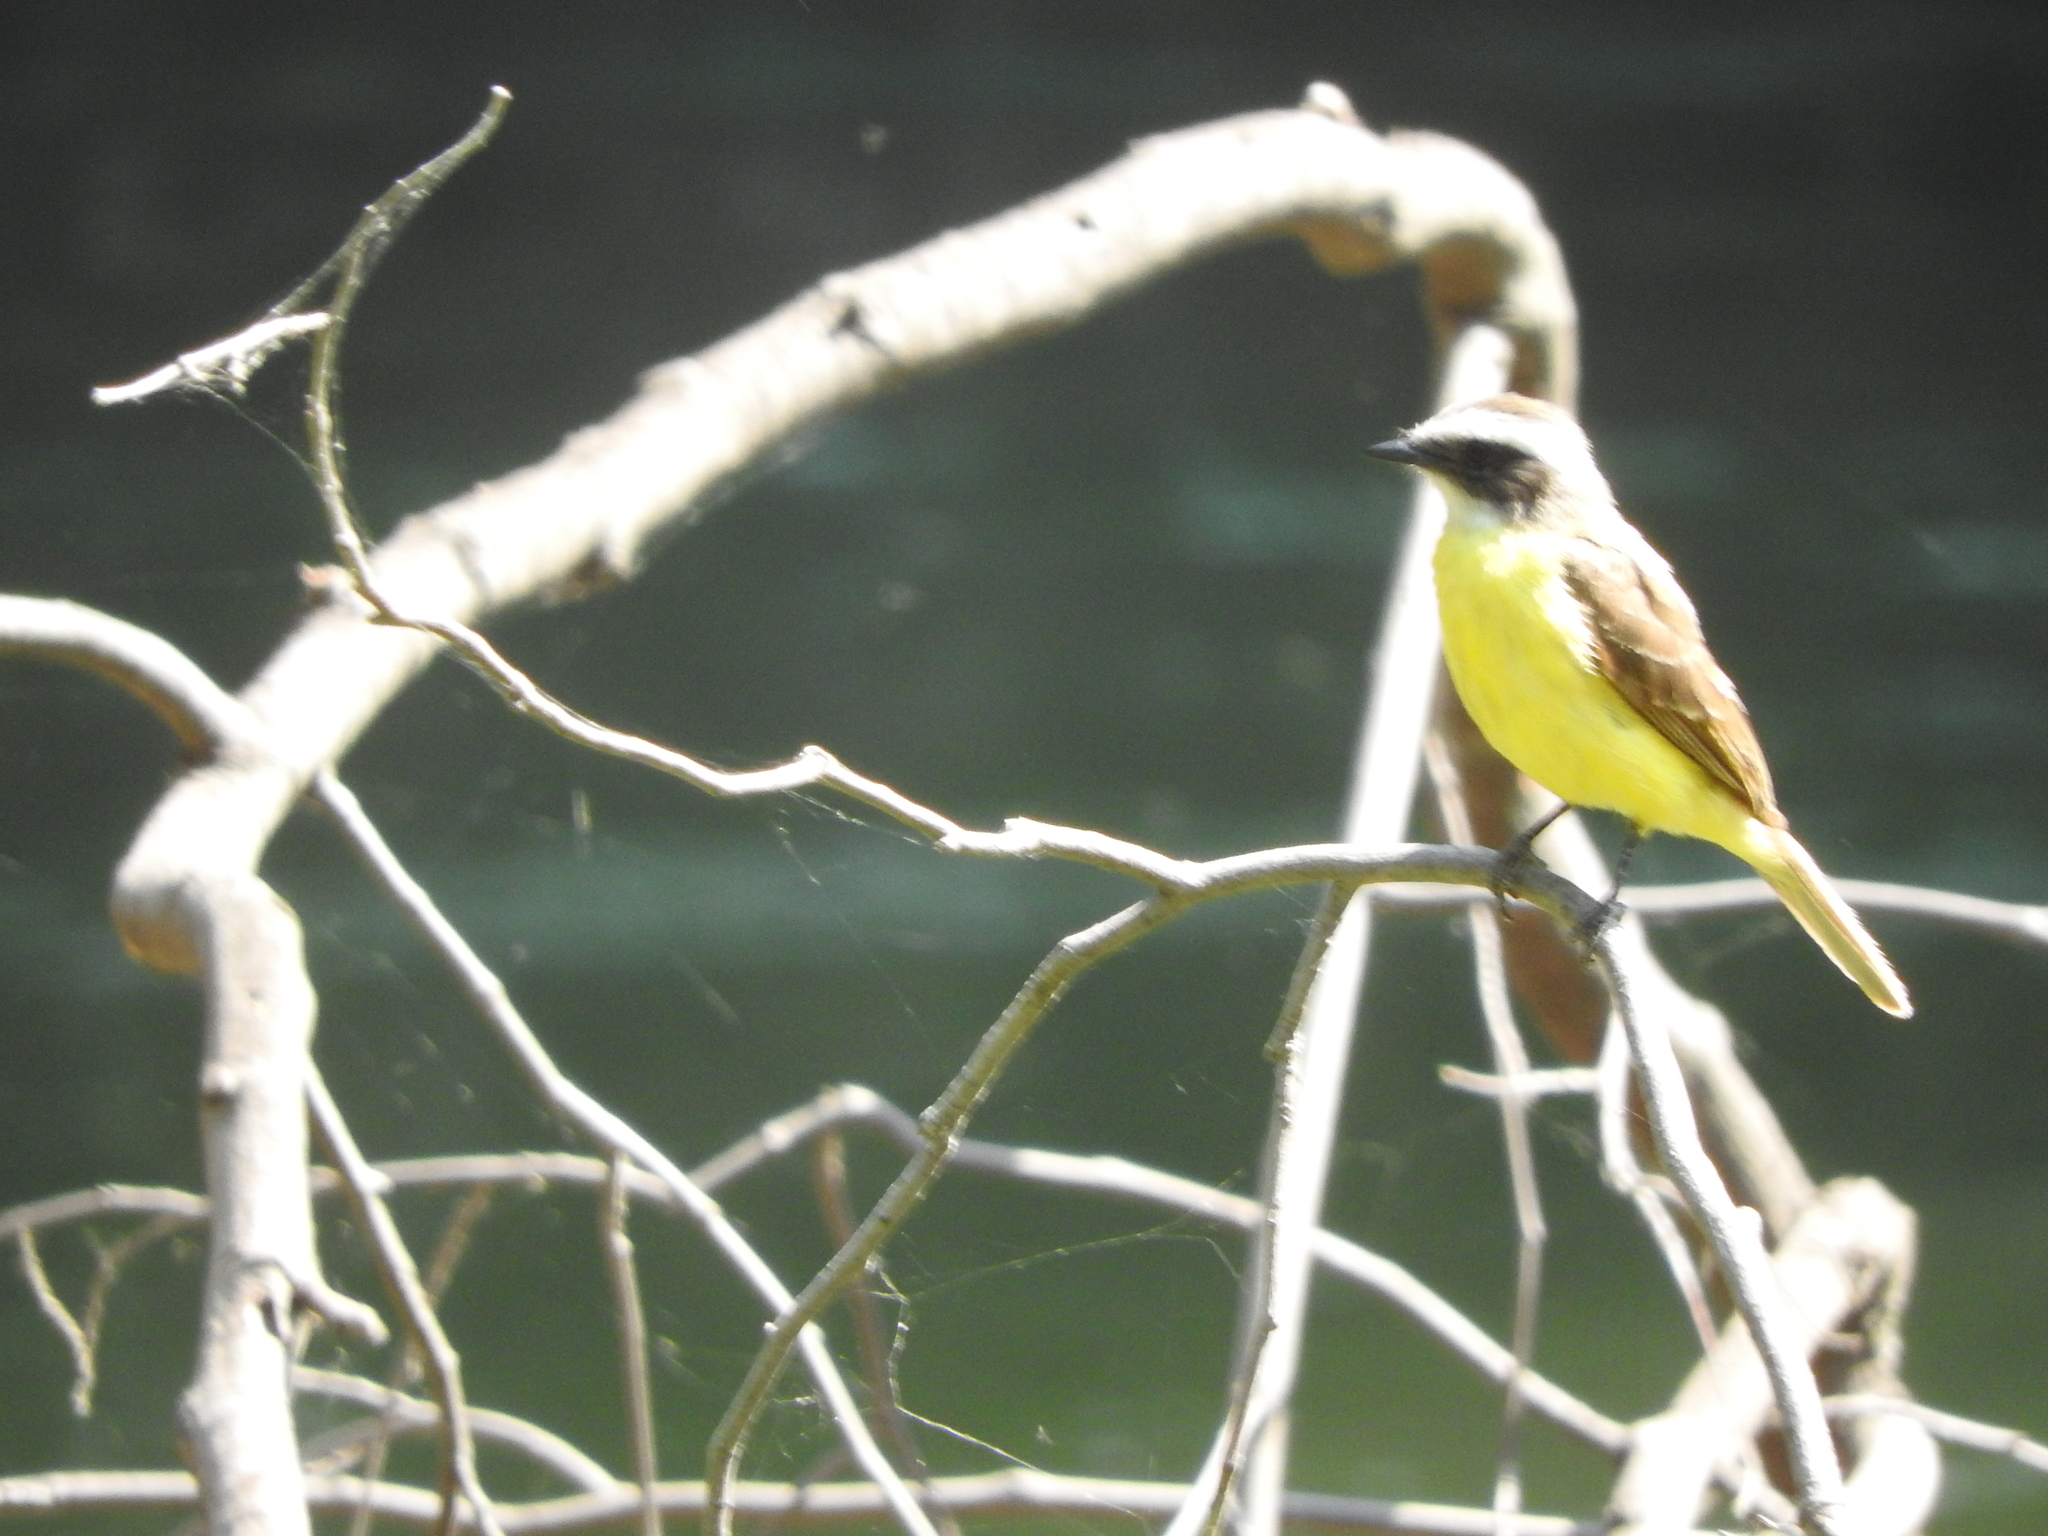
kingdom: Animalia
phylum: Chordata
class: Aves
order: Passeriformes
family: Tyrannidae
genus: Myiozetetes
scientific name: Myiozetetes similis
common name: Social flycatcher
